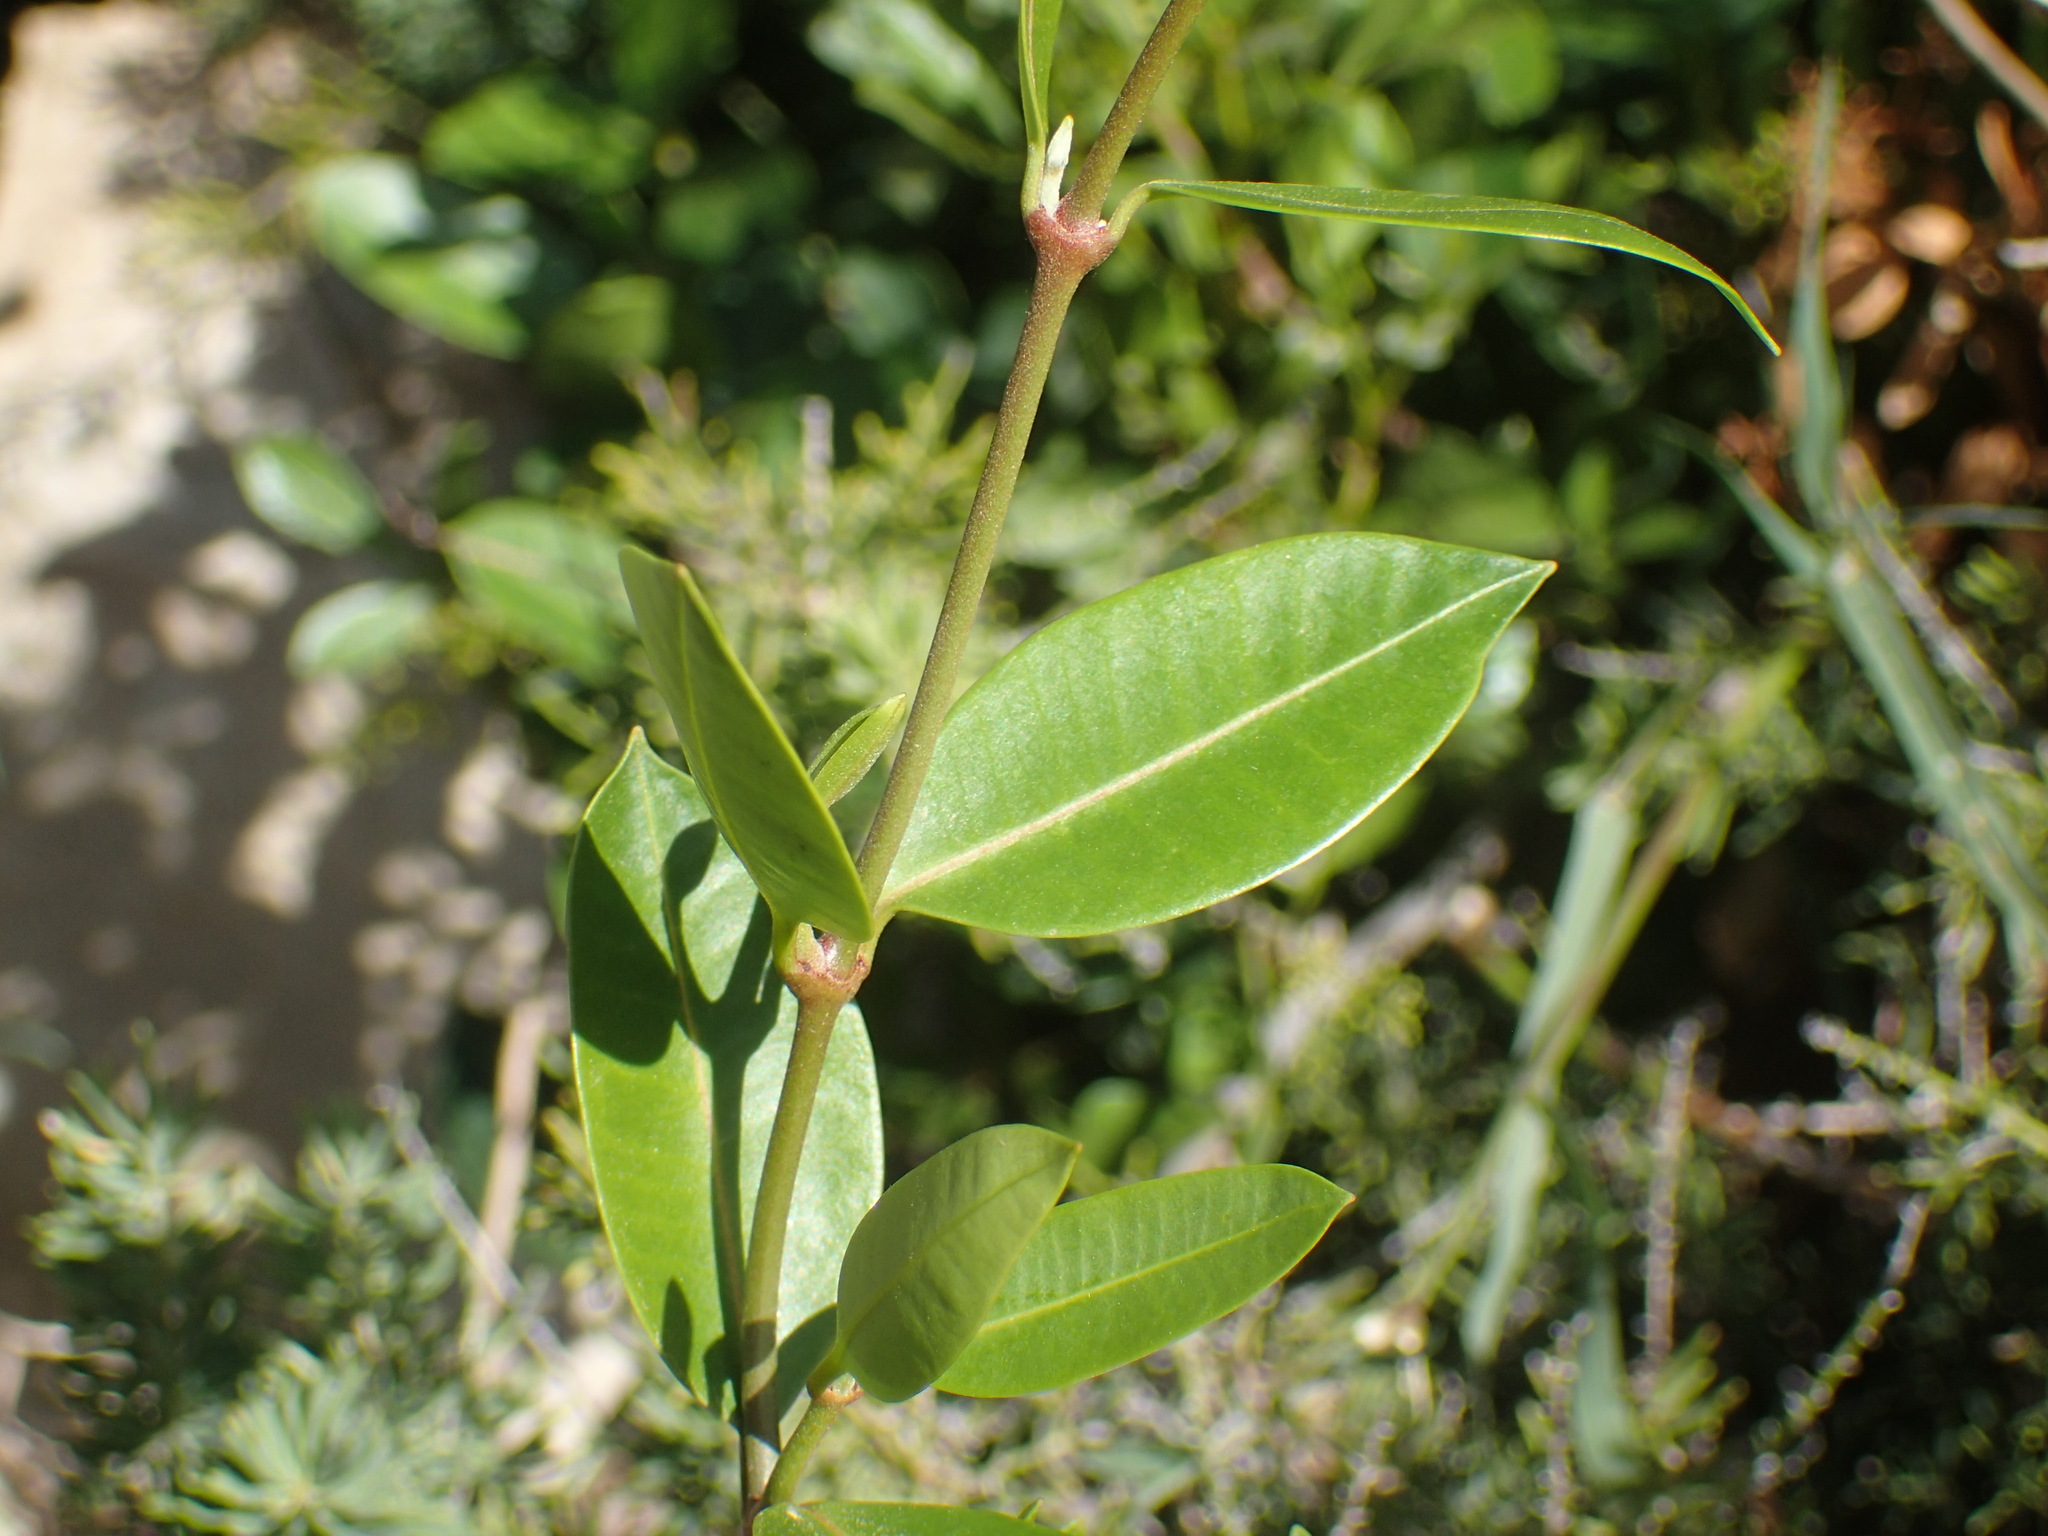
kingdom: Plantae
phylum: Tracheophyta
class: Magnoliopsida
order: Gentianales
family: Apocynaceae
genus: Secamone
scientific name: Secamone alpini
